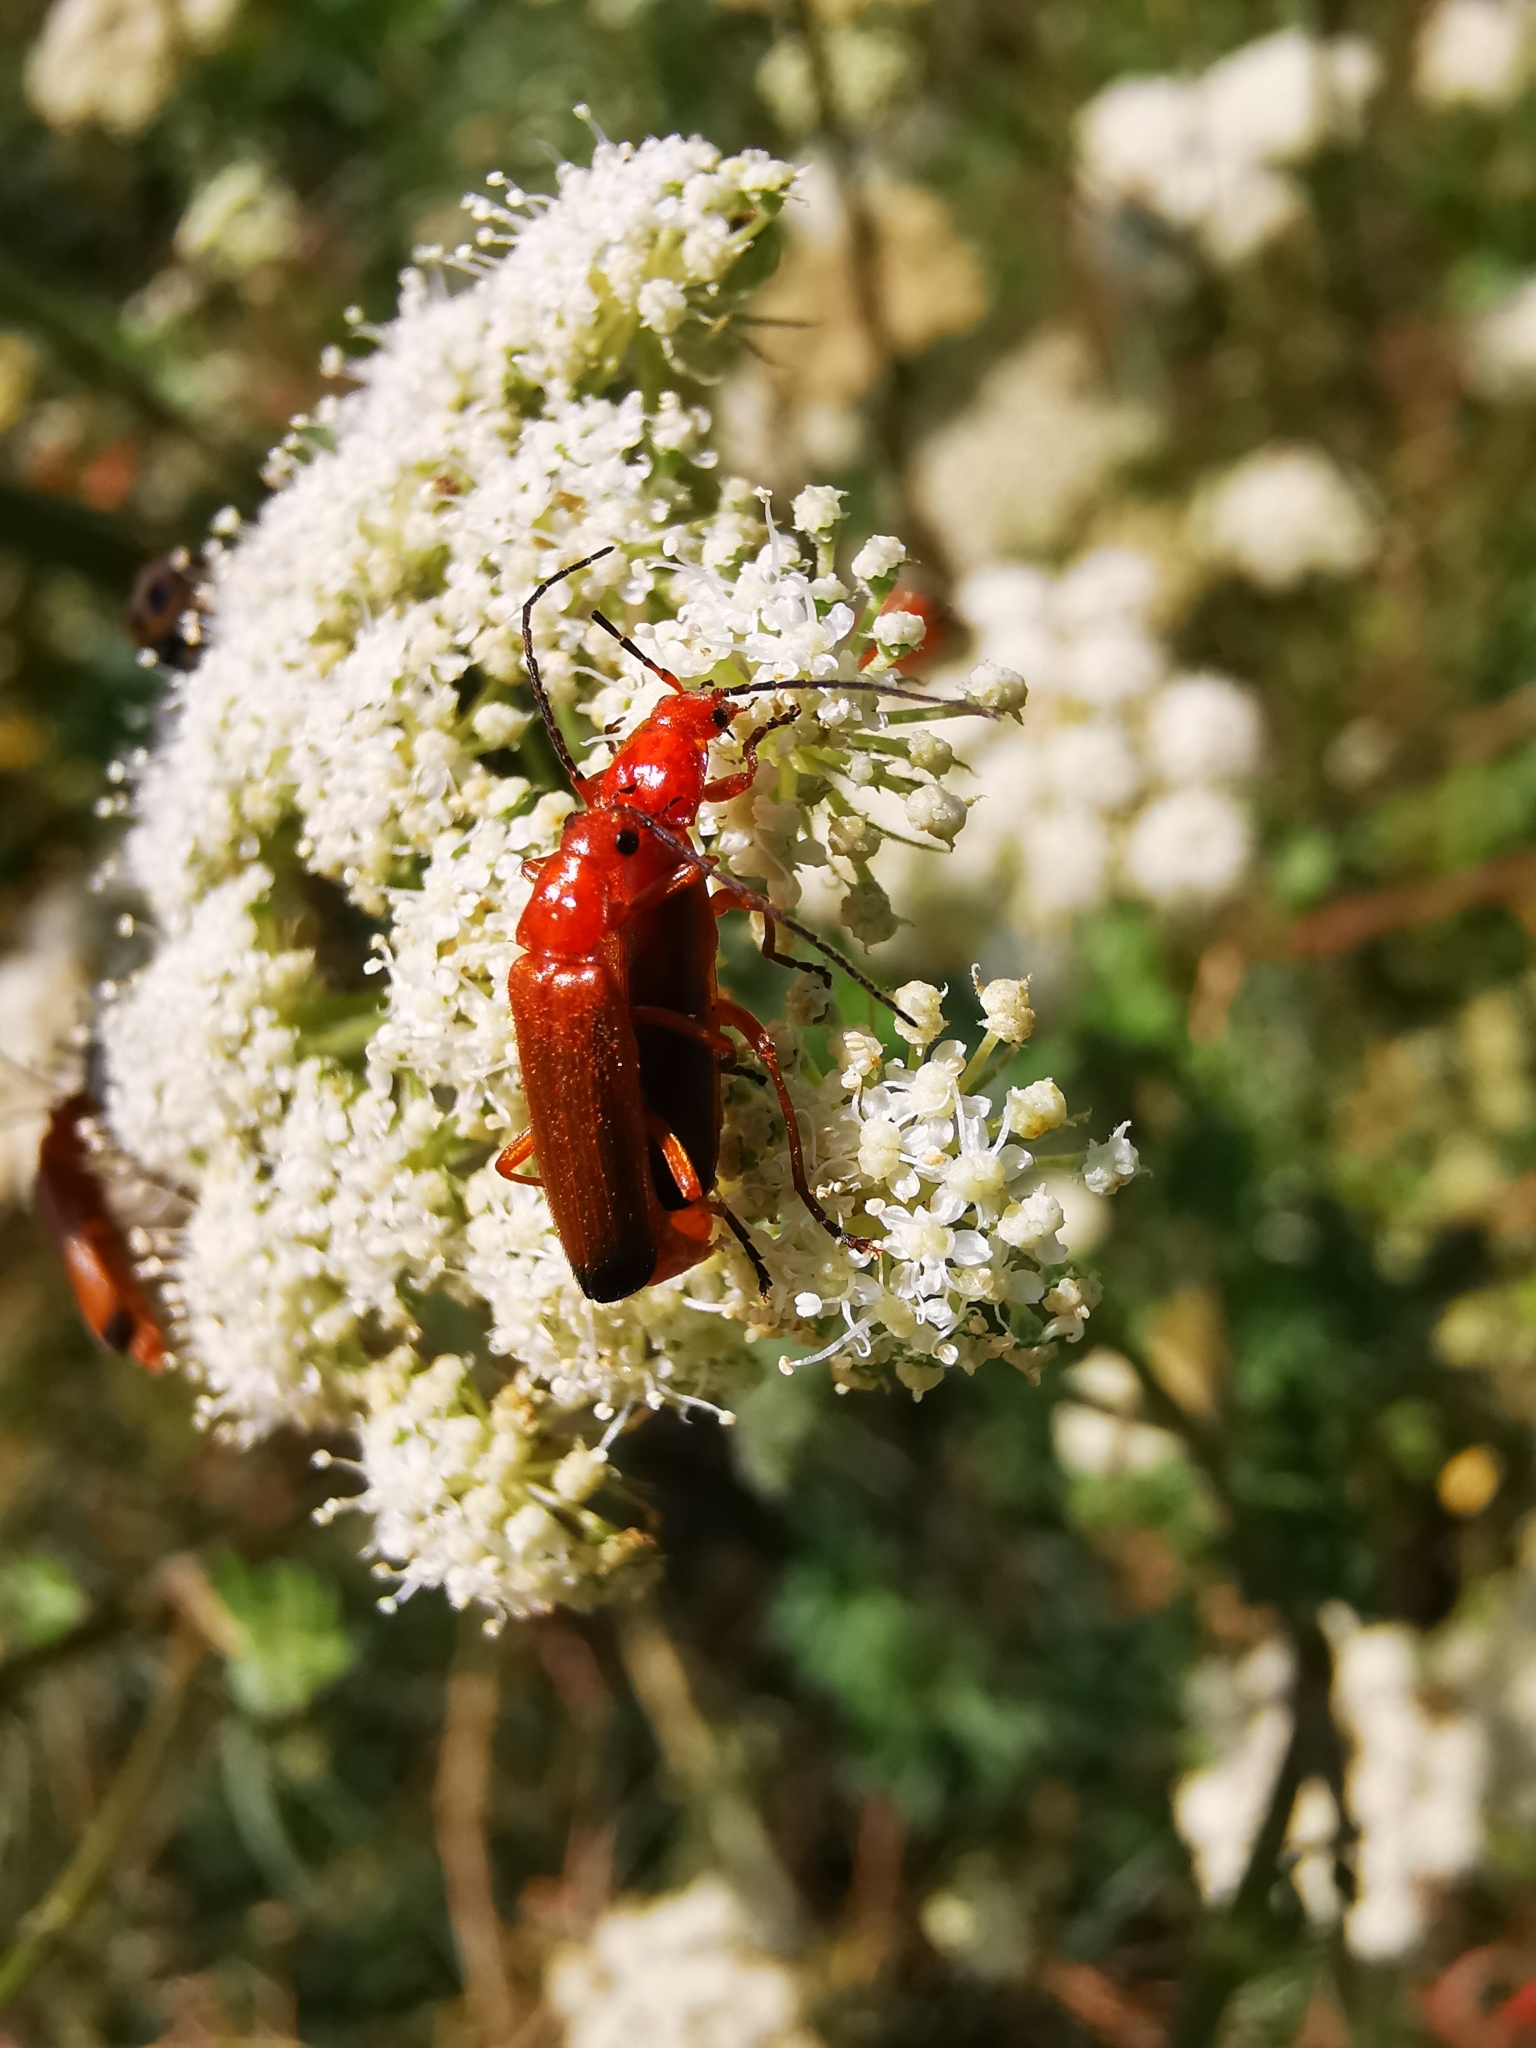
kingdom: Animalia
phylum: Arthropoda
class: Insecta
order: Coleoptera
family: Cantharidae
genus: Rhagonycha
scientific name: Rhagonycha fulva
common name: Common red soldier beetle
